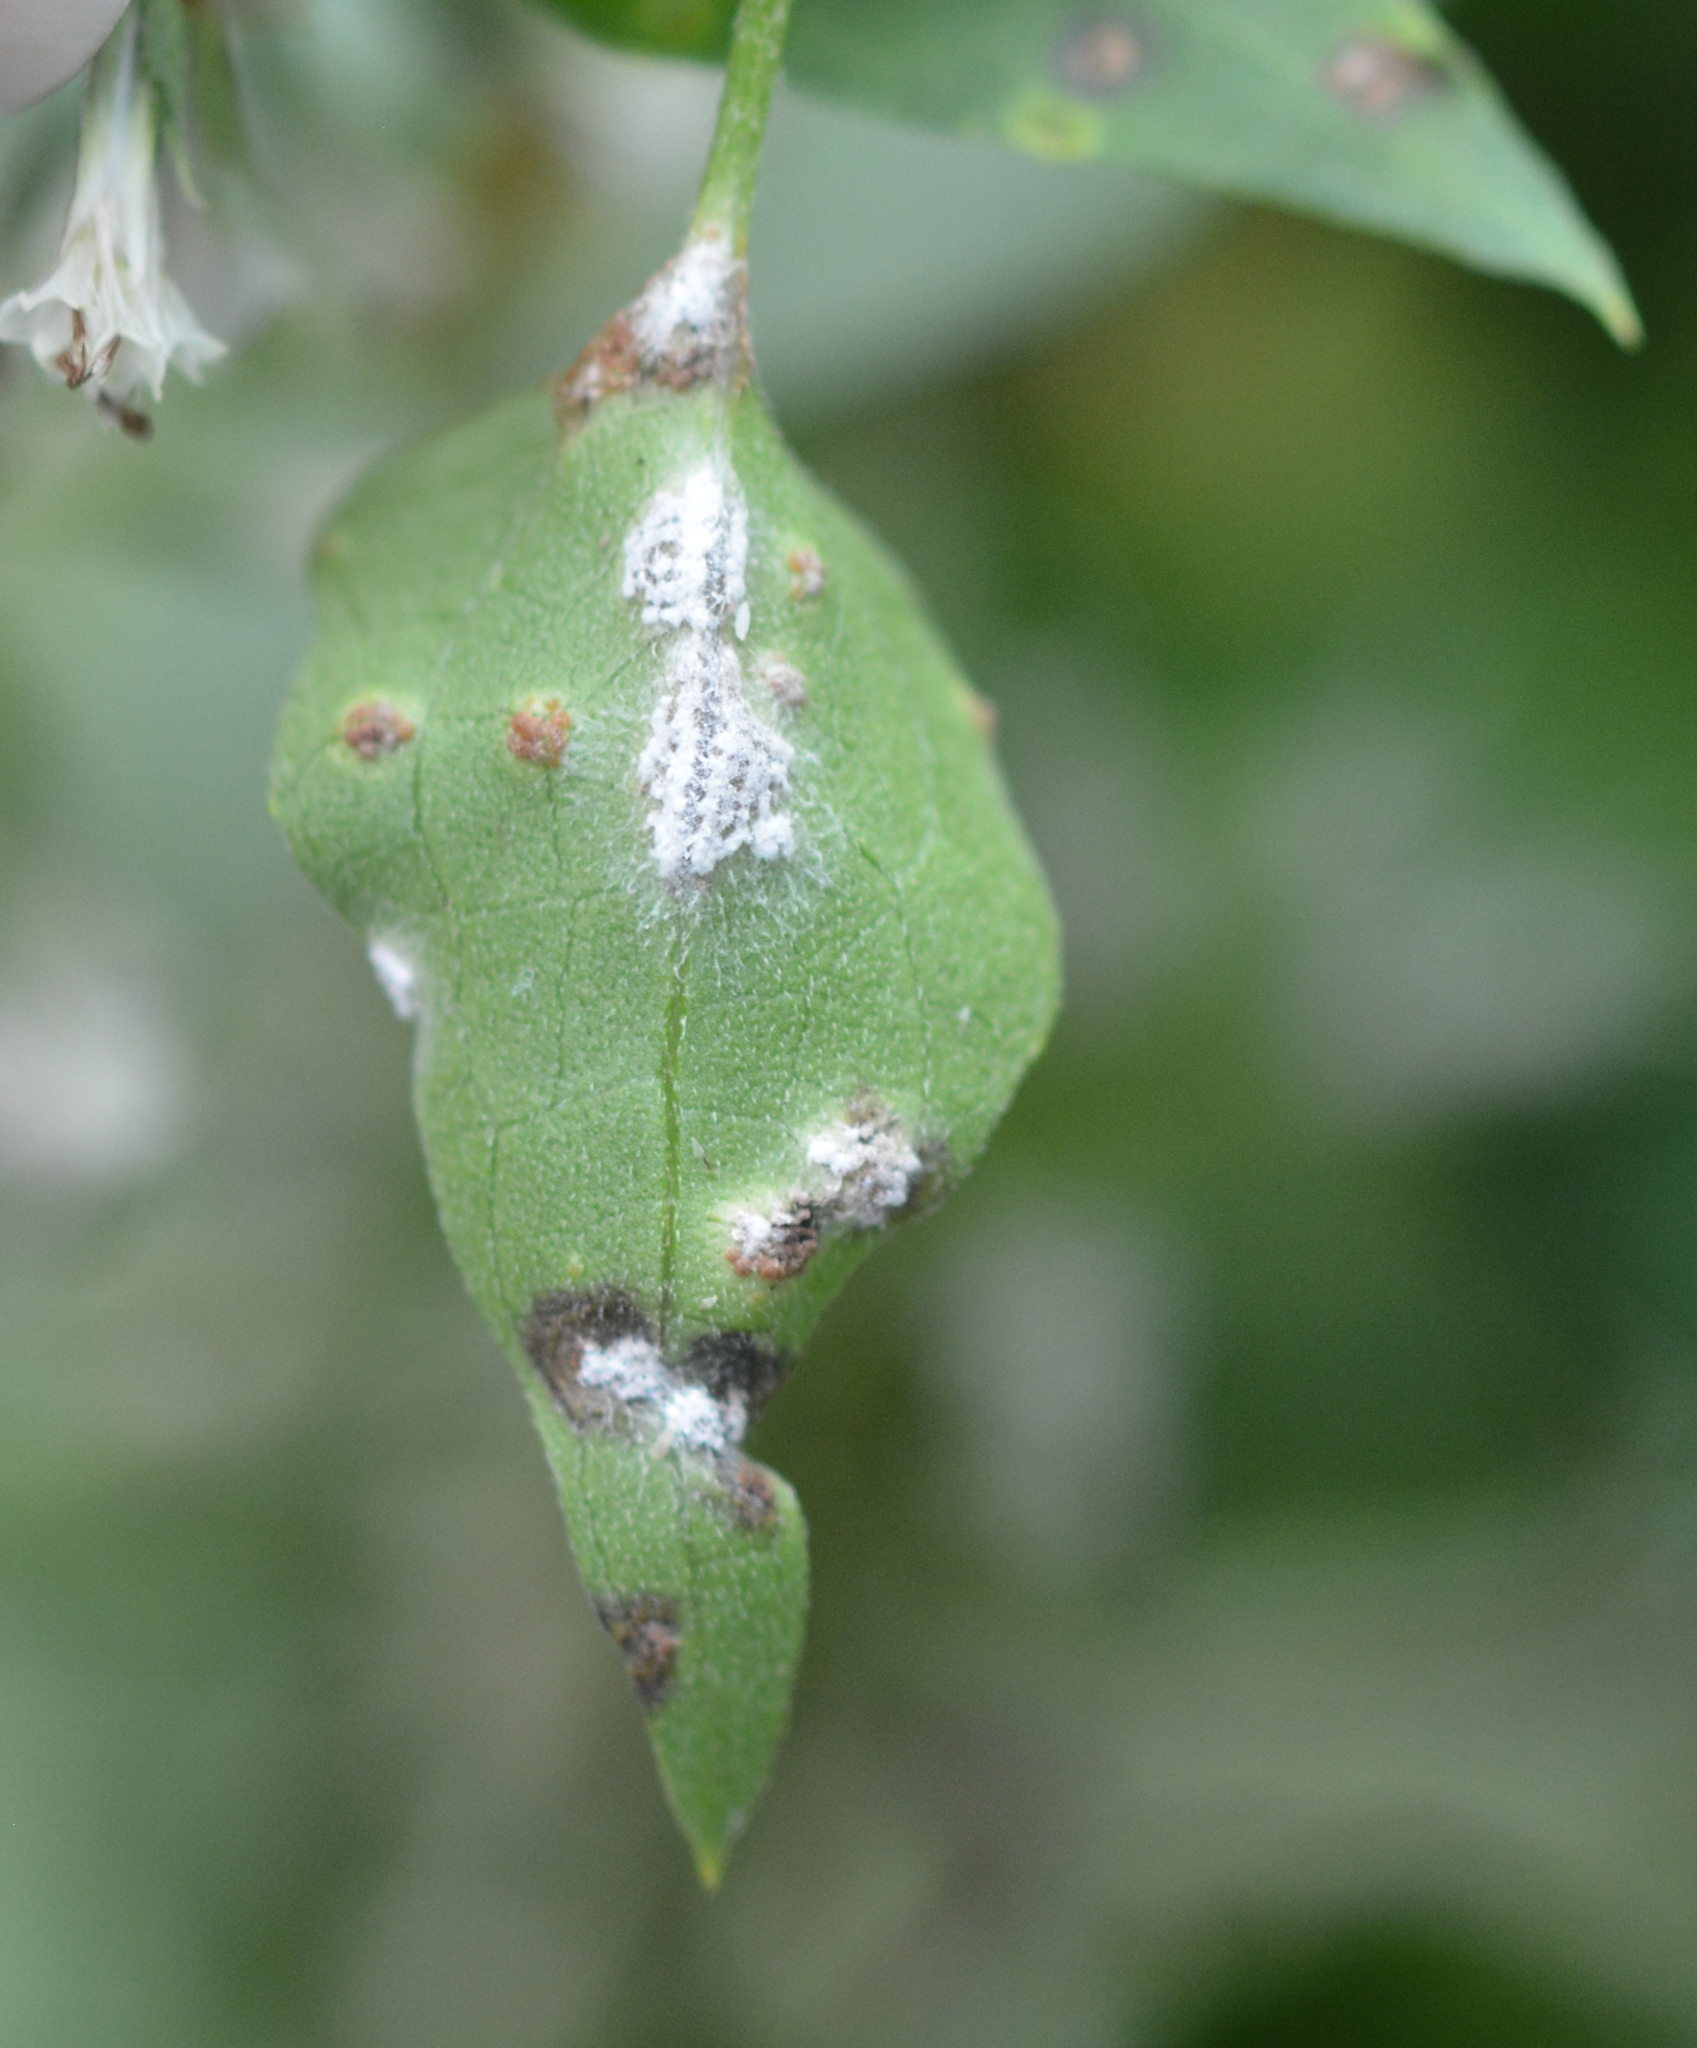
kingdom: Fungi
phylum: Basidiomycota
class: Pucciniomycetes
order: Pucciniales
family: Pucciniaceae
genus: Puccinia
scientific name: Puccinia spegazzinii
